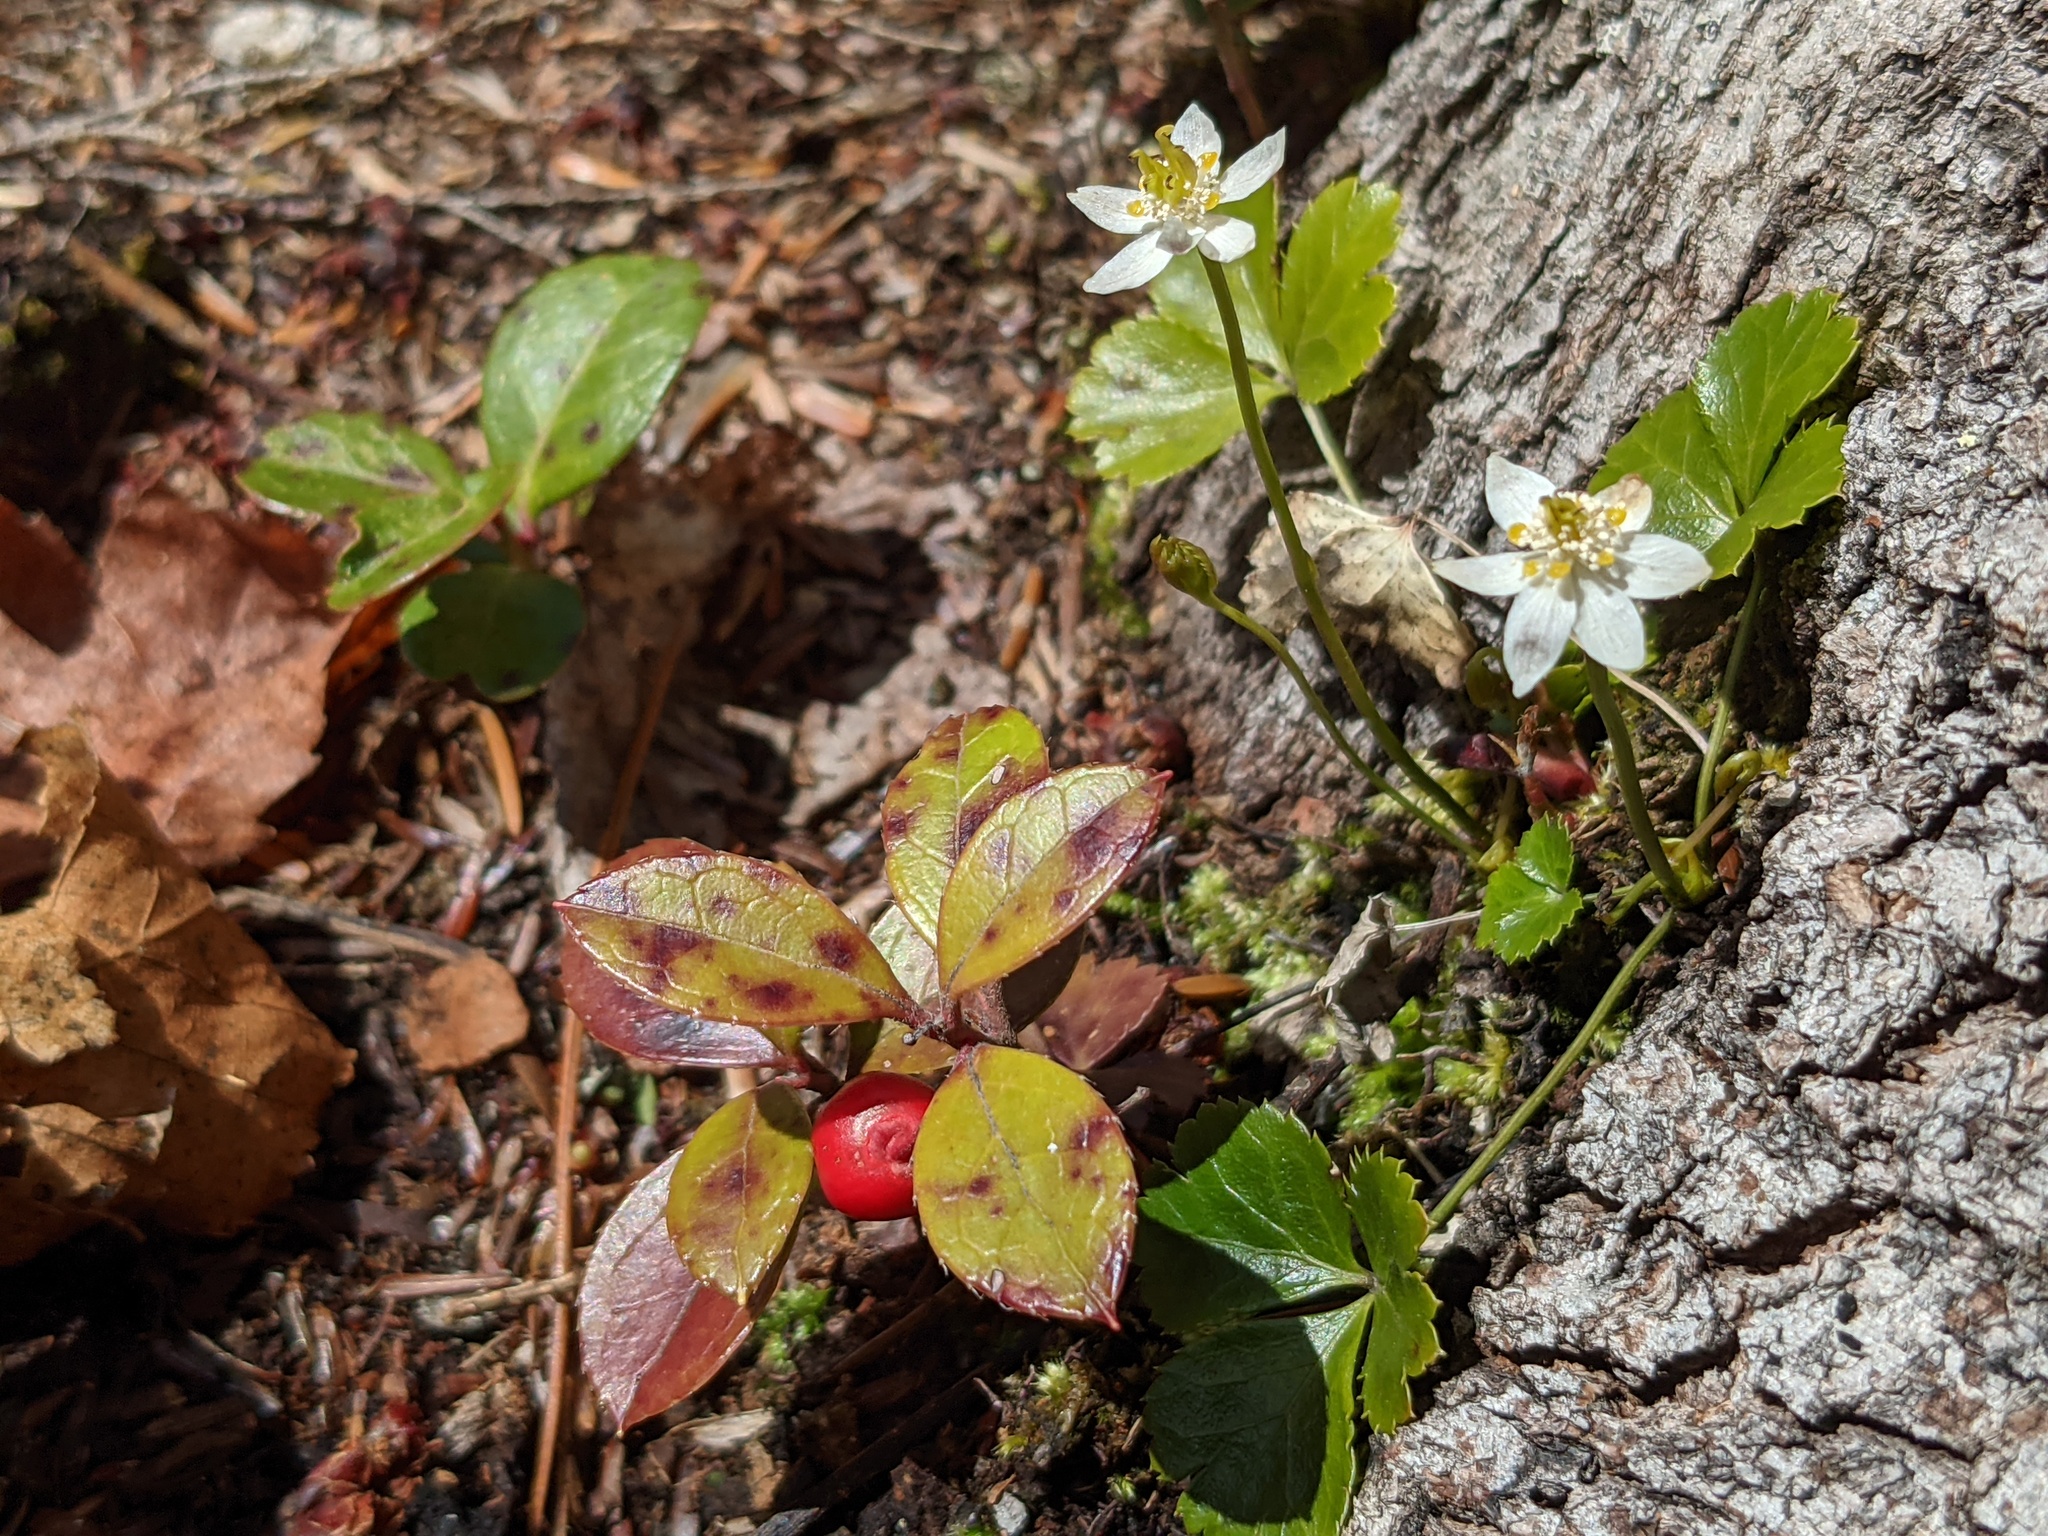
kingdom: Plantae
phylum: Tracheophyta
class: Magnoliopsida
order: Ranunculales
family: Ranunculaceae
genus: Coptis
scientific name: Coptis trifolia
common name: Canker-root
